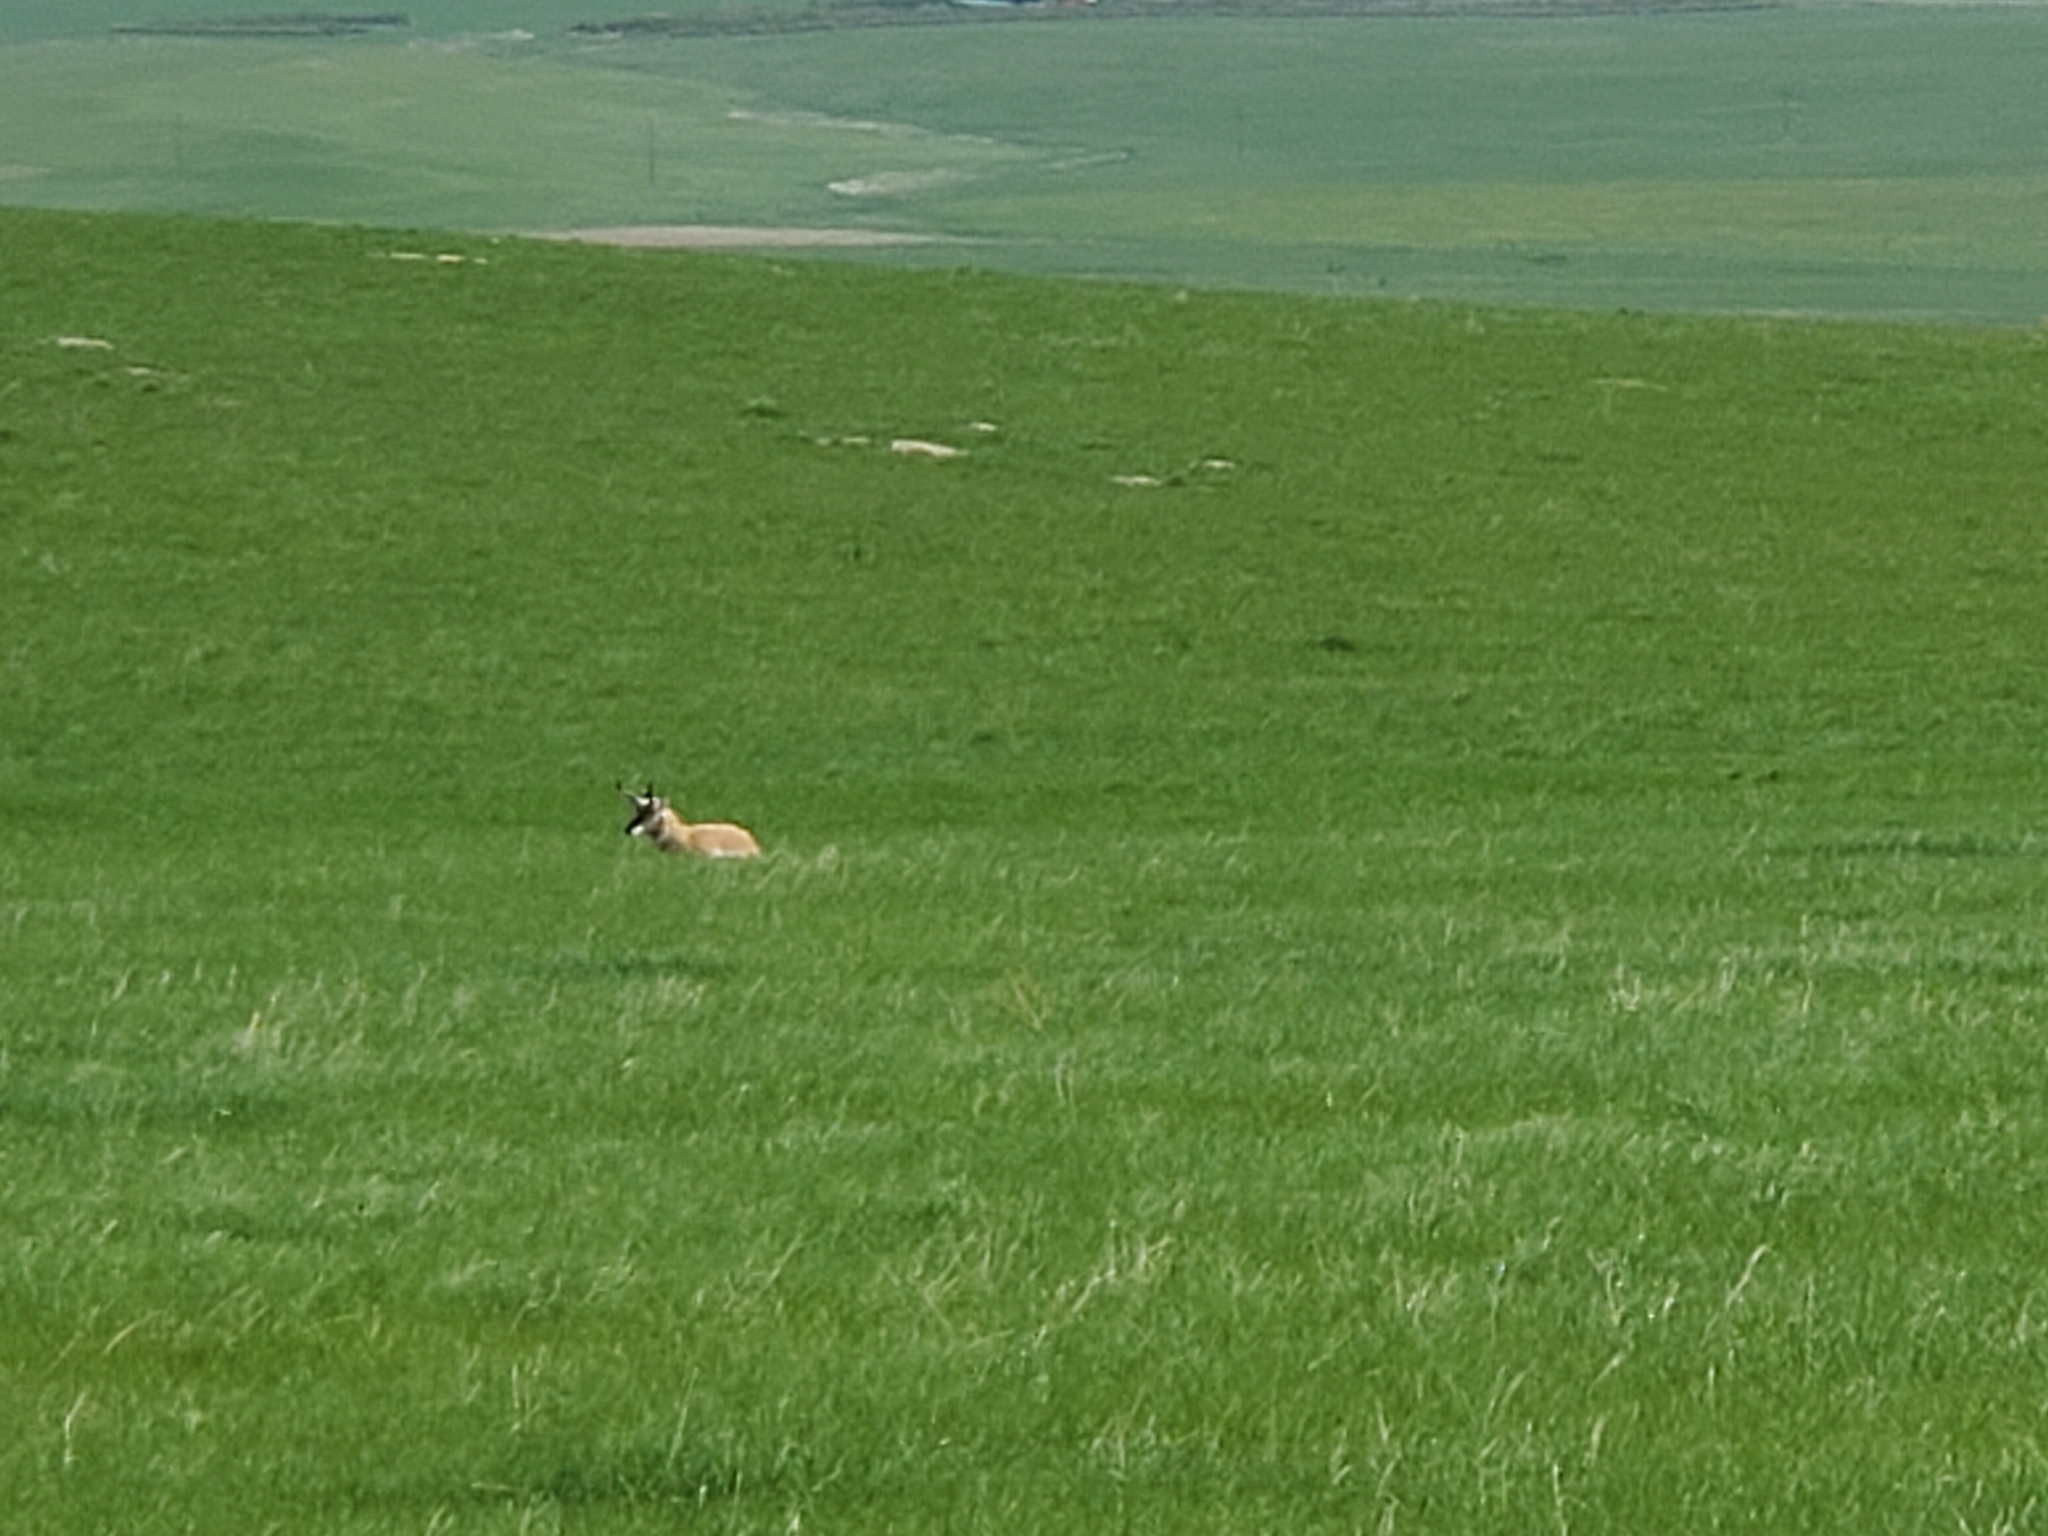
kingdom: Animalia
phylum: Chordata
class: Mammalia
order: Artiodactyla
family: Antilocapridae
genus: Antilocapra
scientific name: Antilocapra americana
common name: Pronghorn
